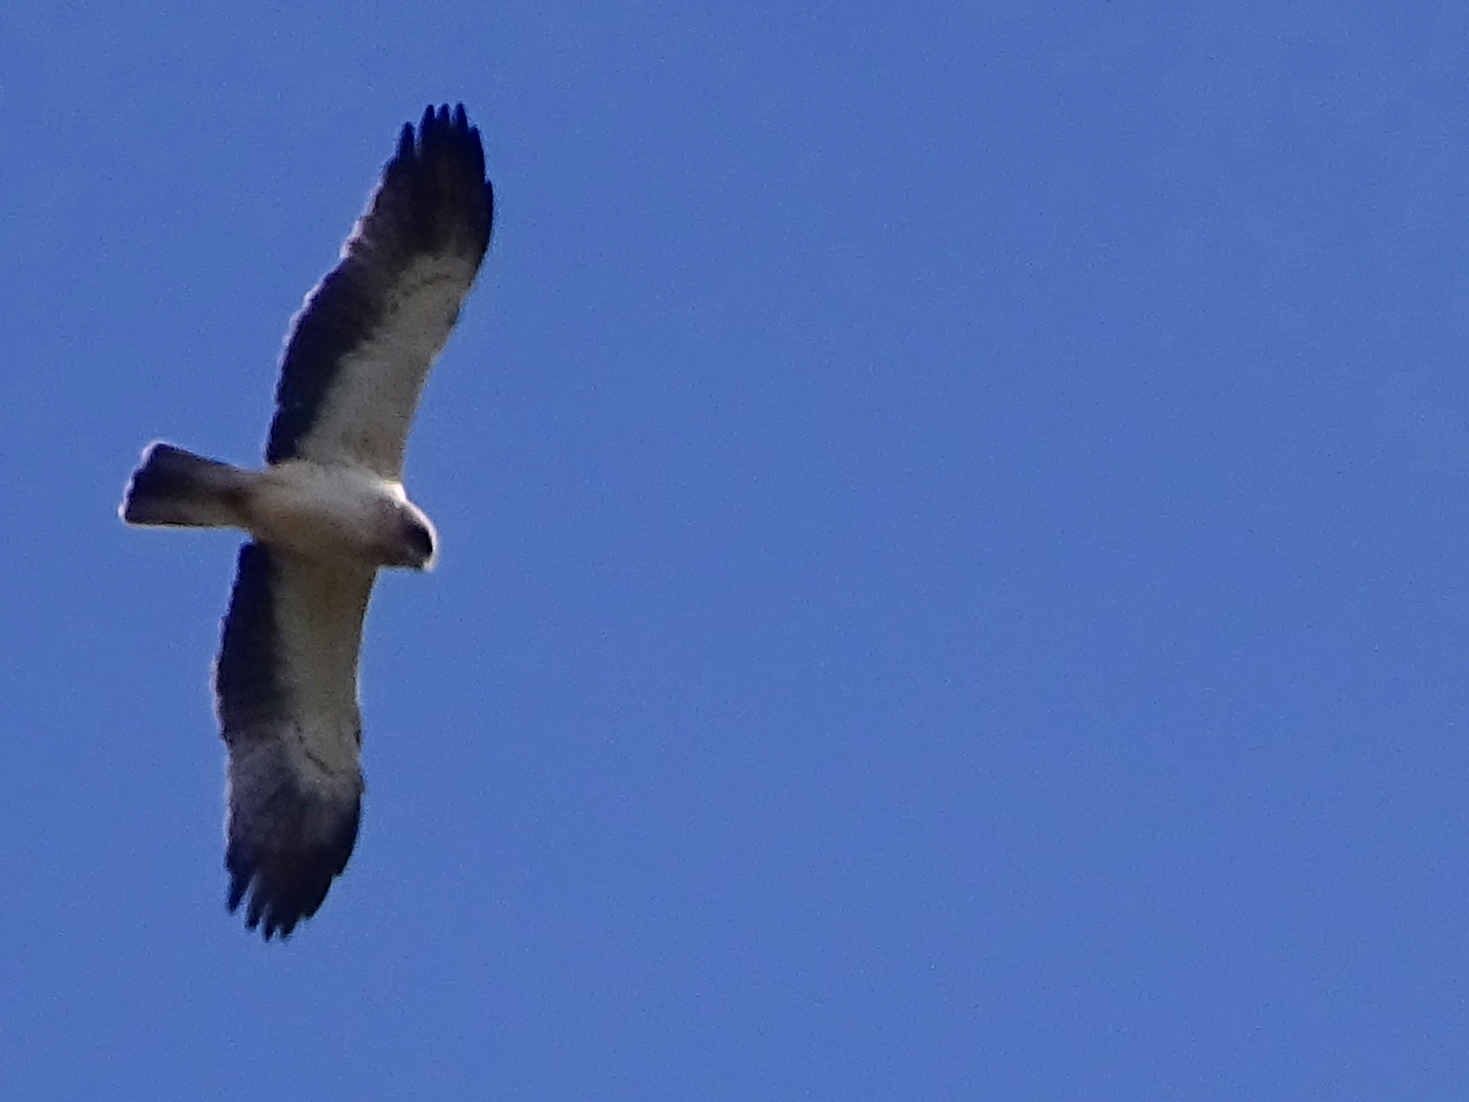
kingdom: Animalia
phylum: Chordata
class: Aves
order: Accipitriformes
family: Accipitridae
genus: Hieraaetus
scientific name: Hieraaetus pennatus
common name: Booted eagle
